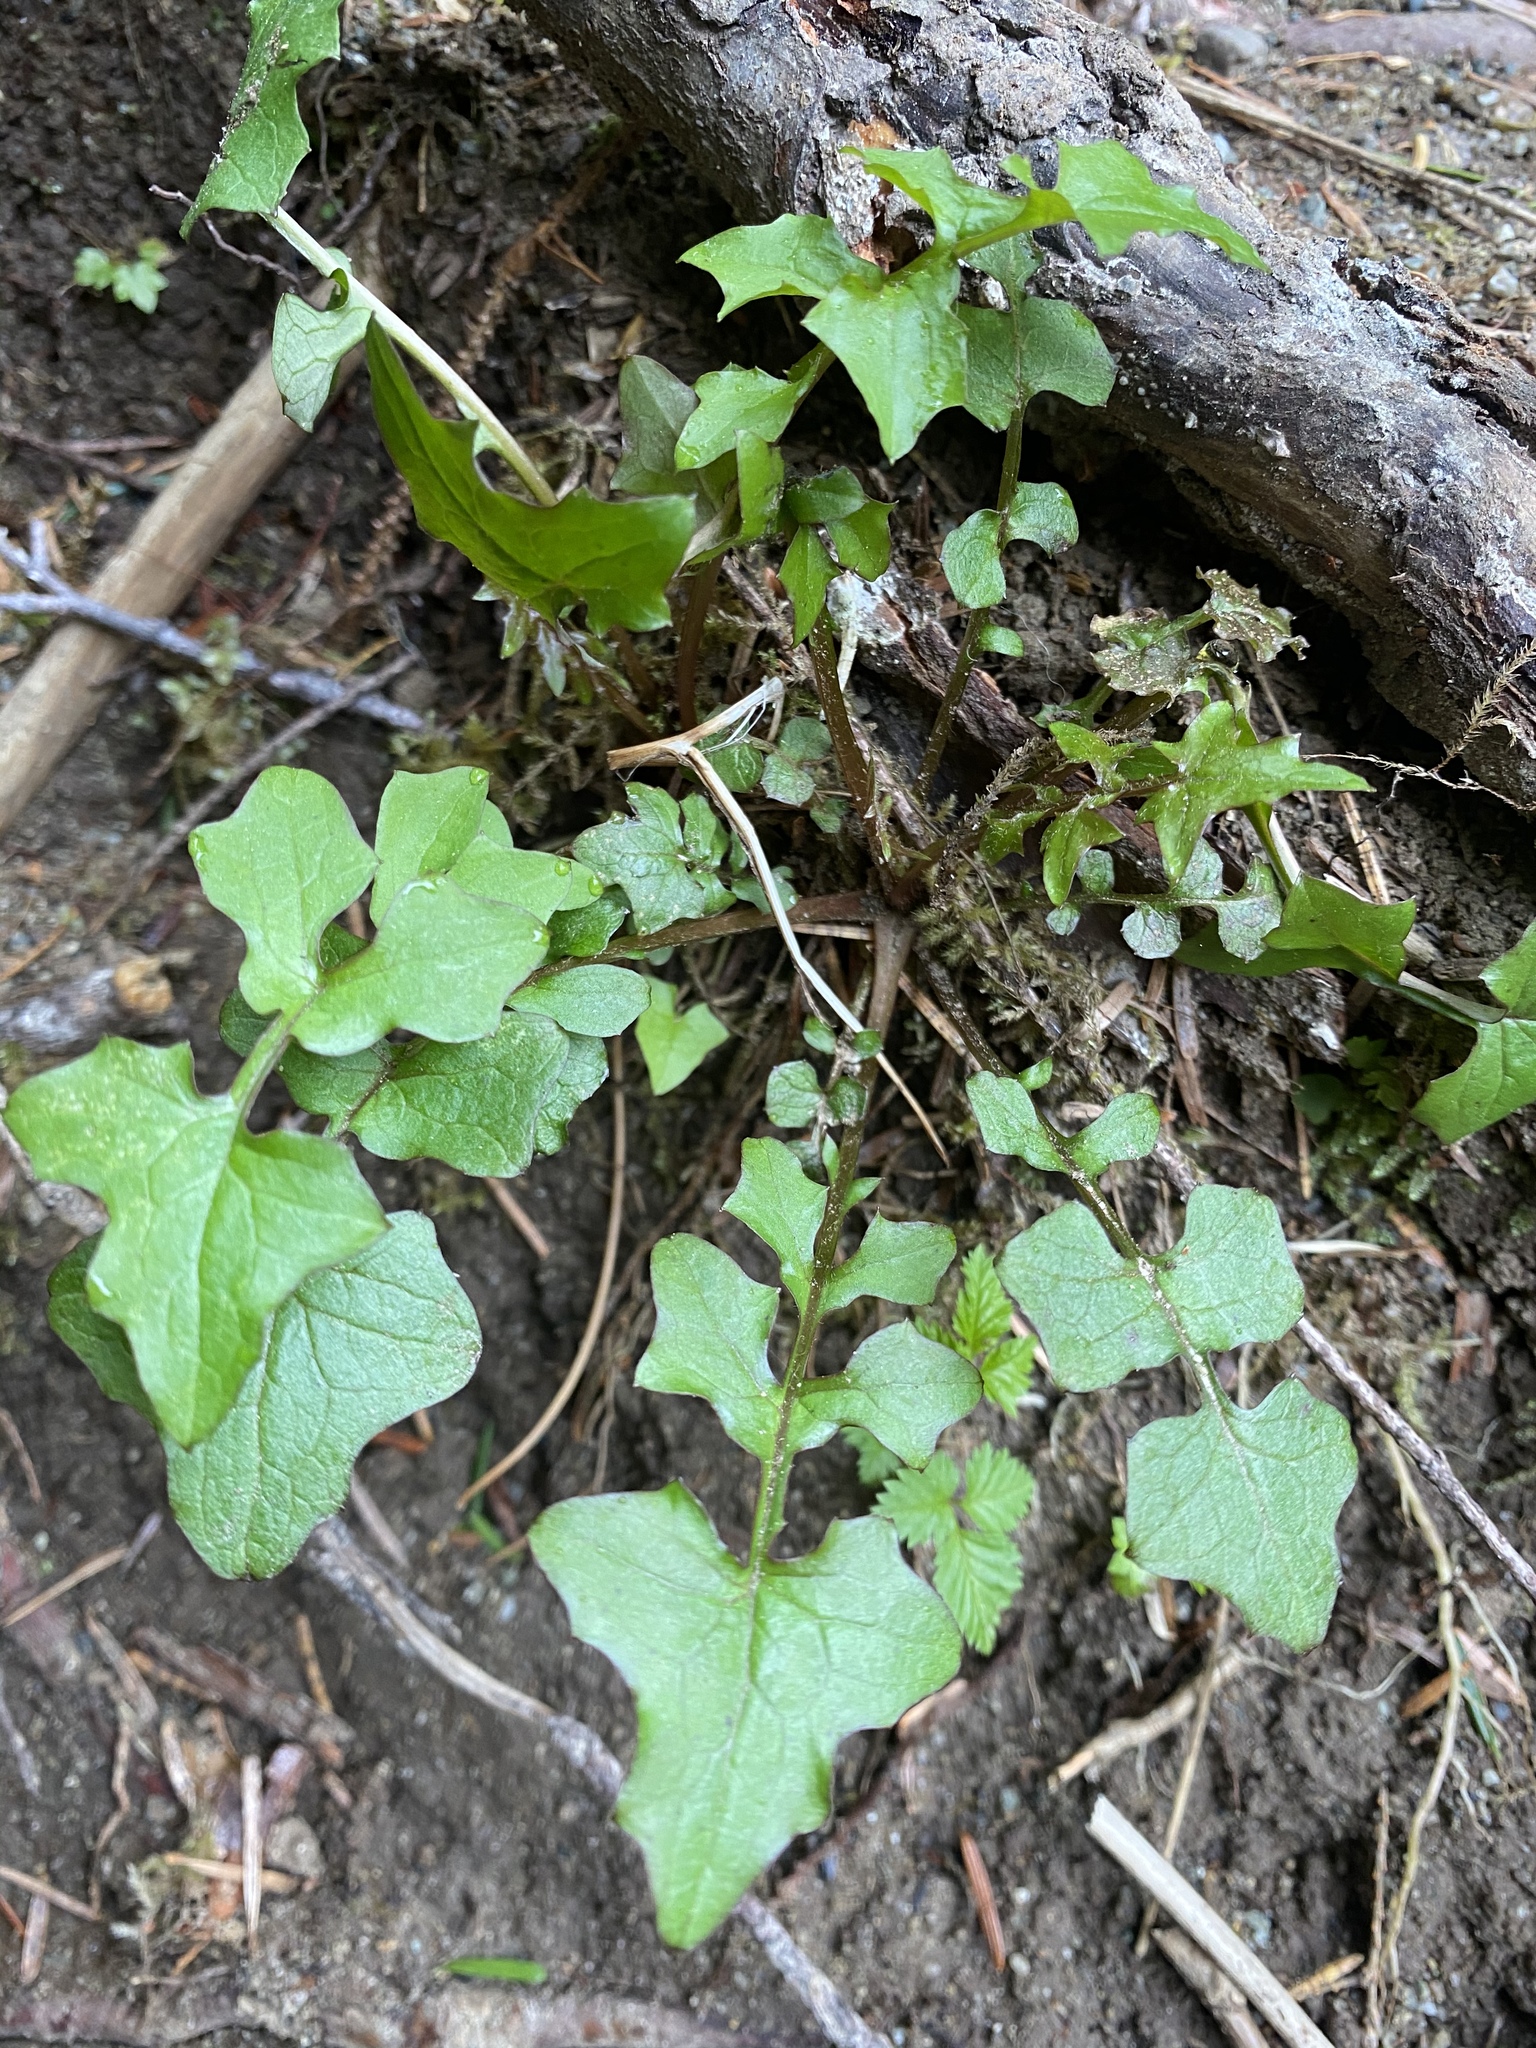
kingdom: Plantae
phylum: Tracheophyta
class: Magnoliopsida
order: Asterales
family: Asteraceae
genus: Mycelis
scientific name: Mycelis muralis
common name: Wall lettuce
